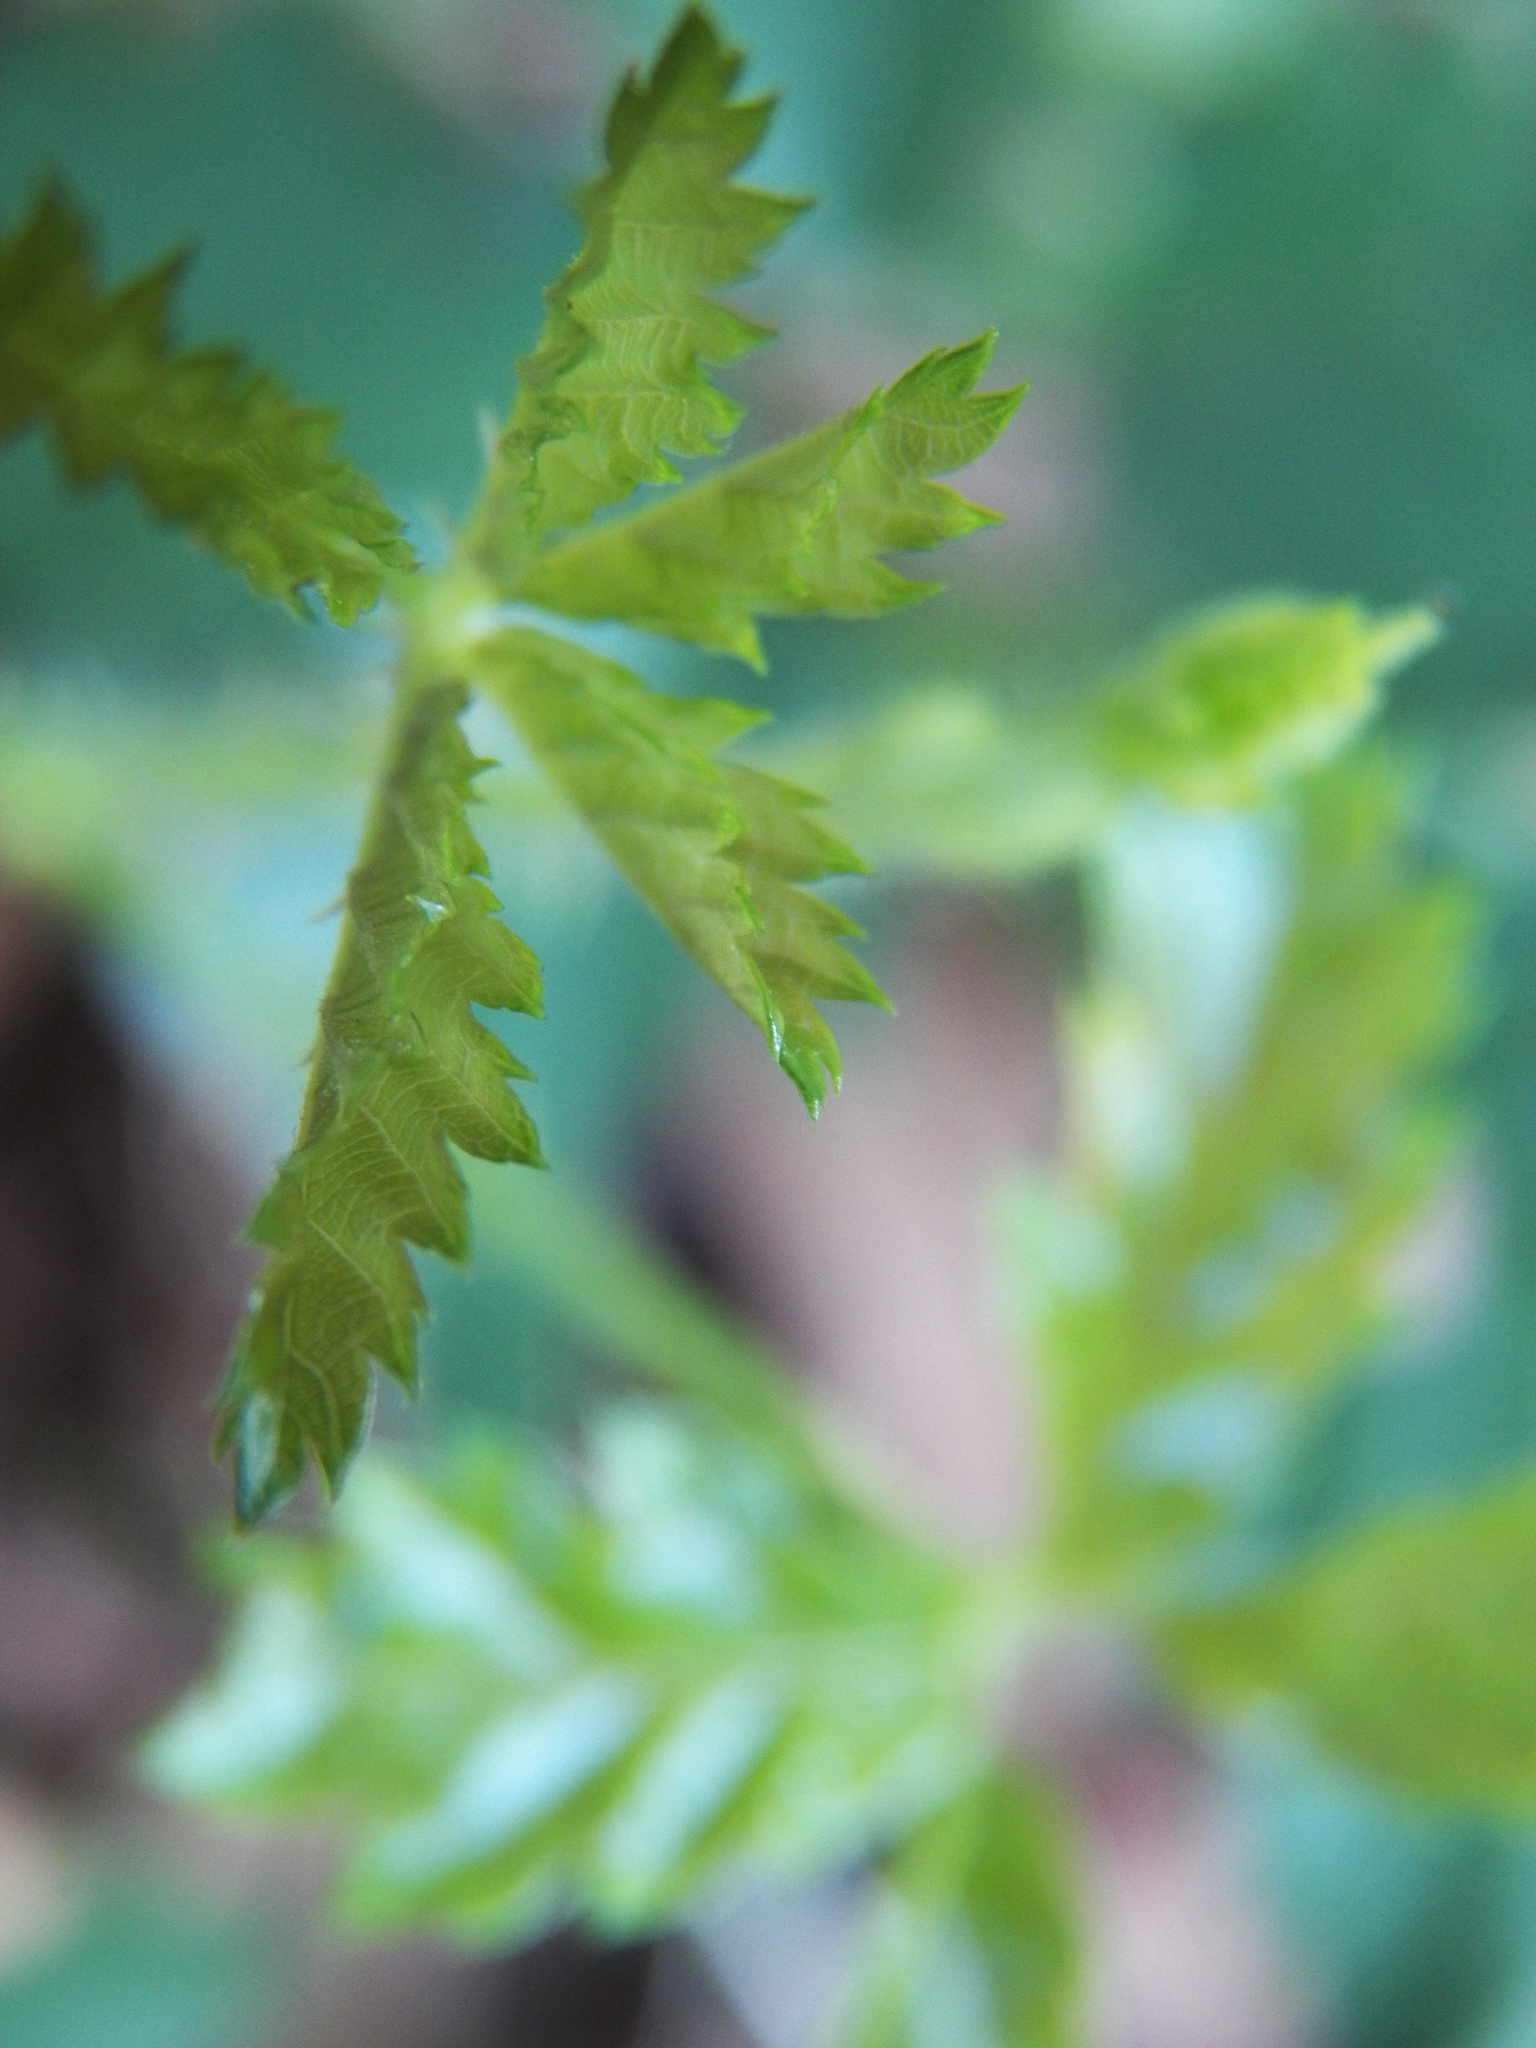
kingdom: Plantae
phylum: Tracheophyta
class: Magnoliopsida
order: Rosales
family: Rosaceae
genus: Rubus
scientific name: Rubus trivialis
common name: Southern dewberry
